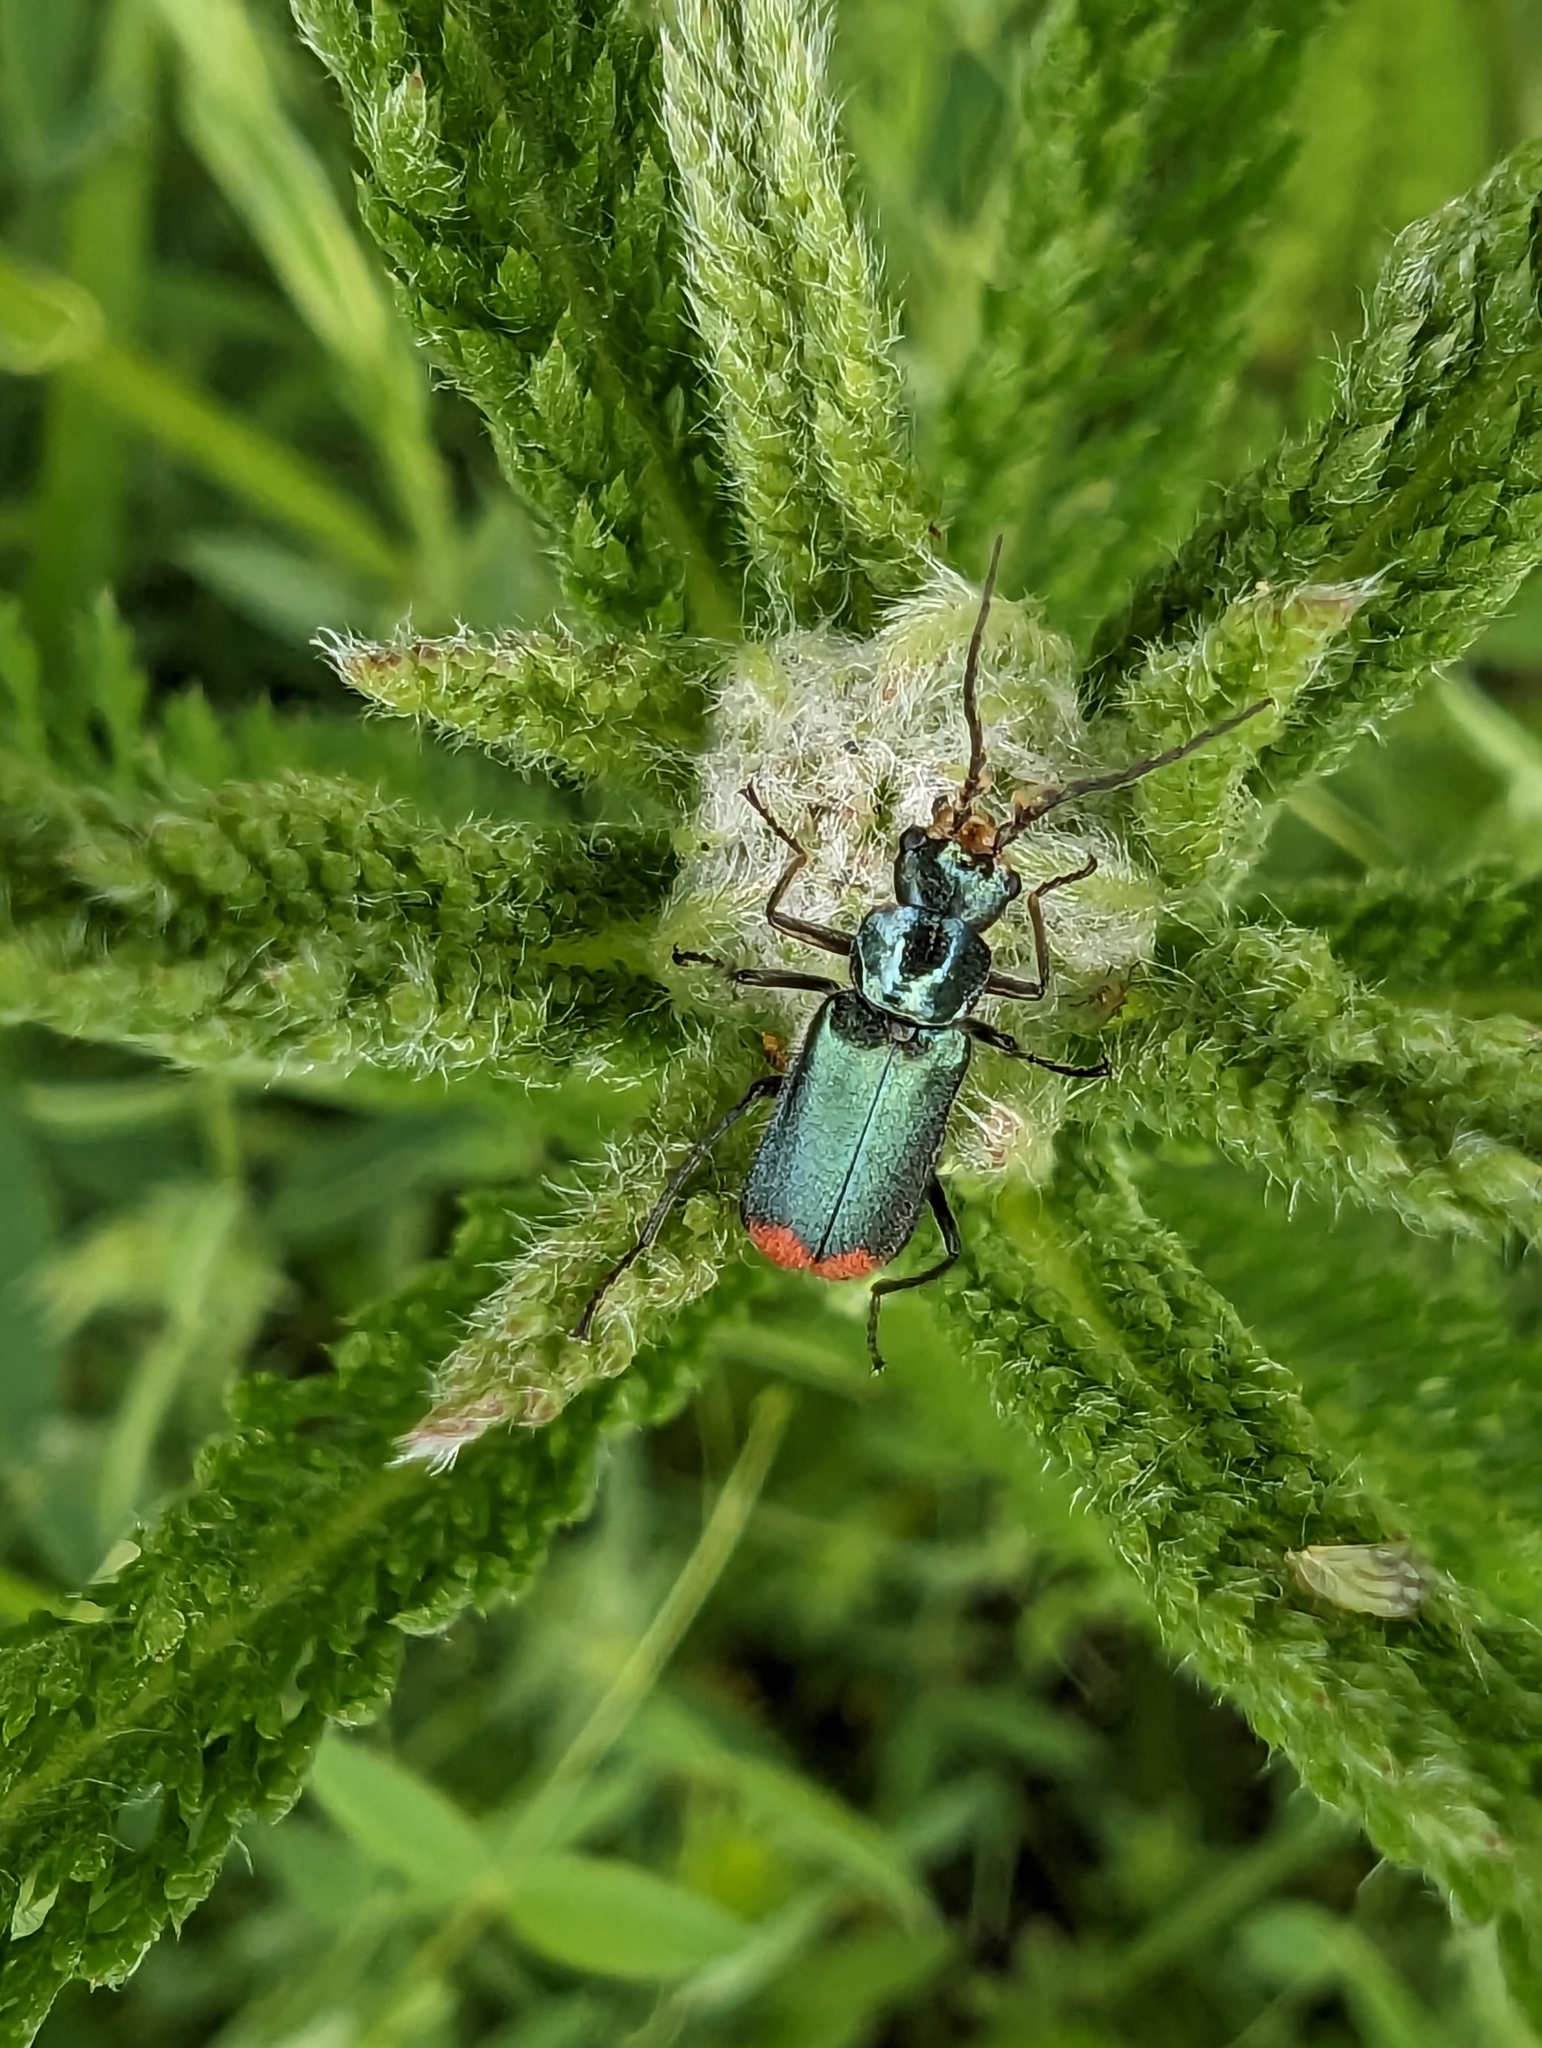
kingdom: Animalia
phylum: Arthropoda
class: Insecta
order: Coleoptera
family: Melyridae
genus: Malachius
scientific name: Malachius bipustulatus
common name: Malachite beetle
